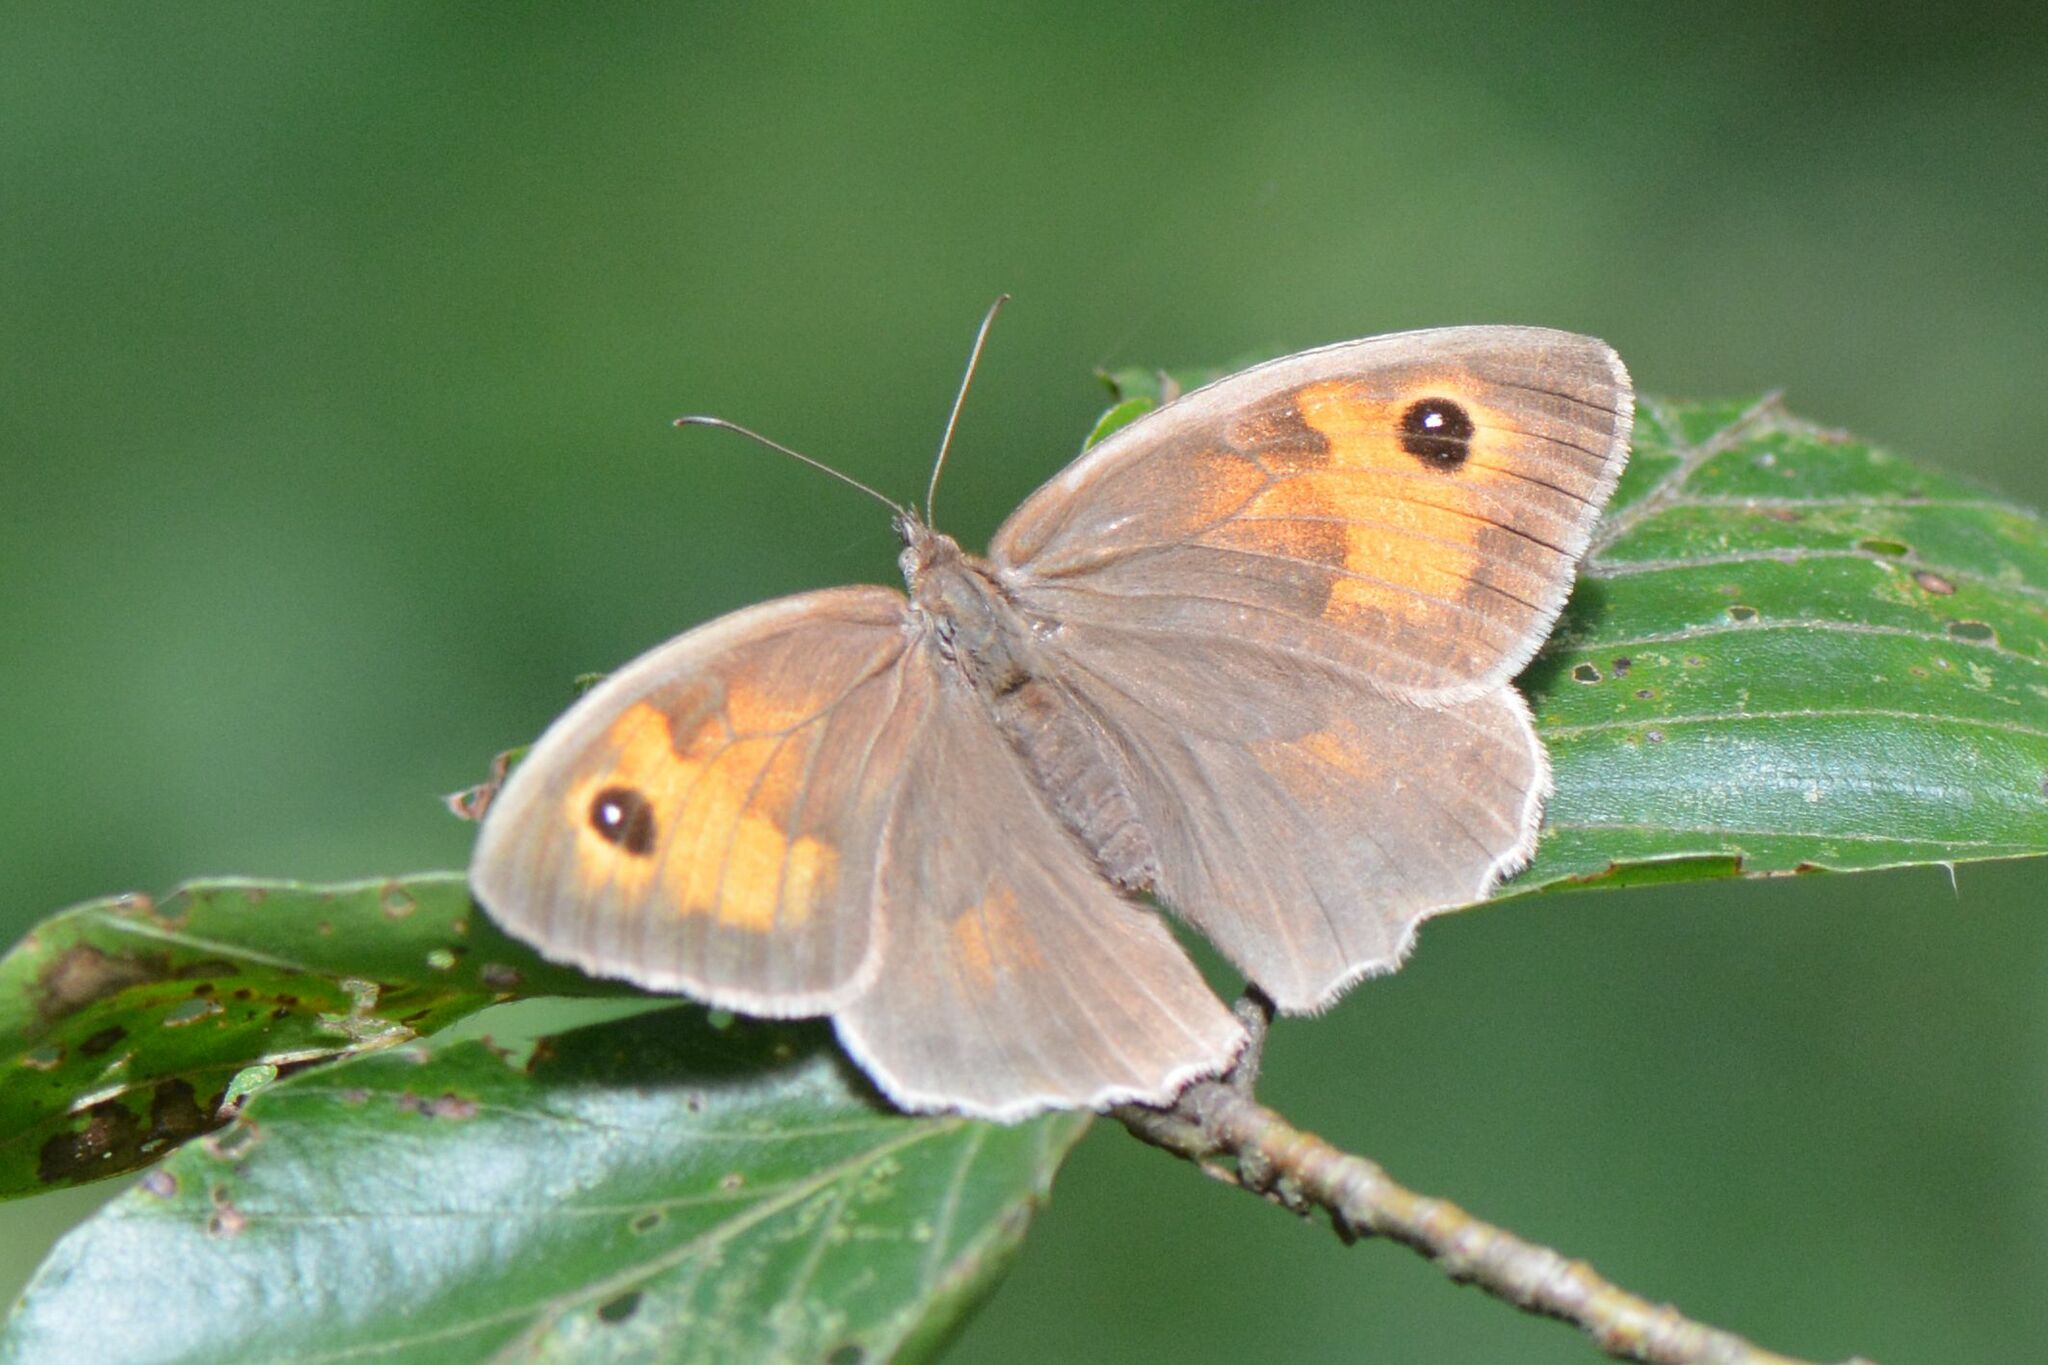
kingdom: Animalia
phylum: Arthropoda
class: Insecta
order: Lepidoptera
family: Nymphalidae
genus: Maniola
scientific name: Maniola jurtina
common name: Meadow brown
